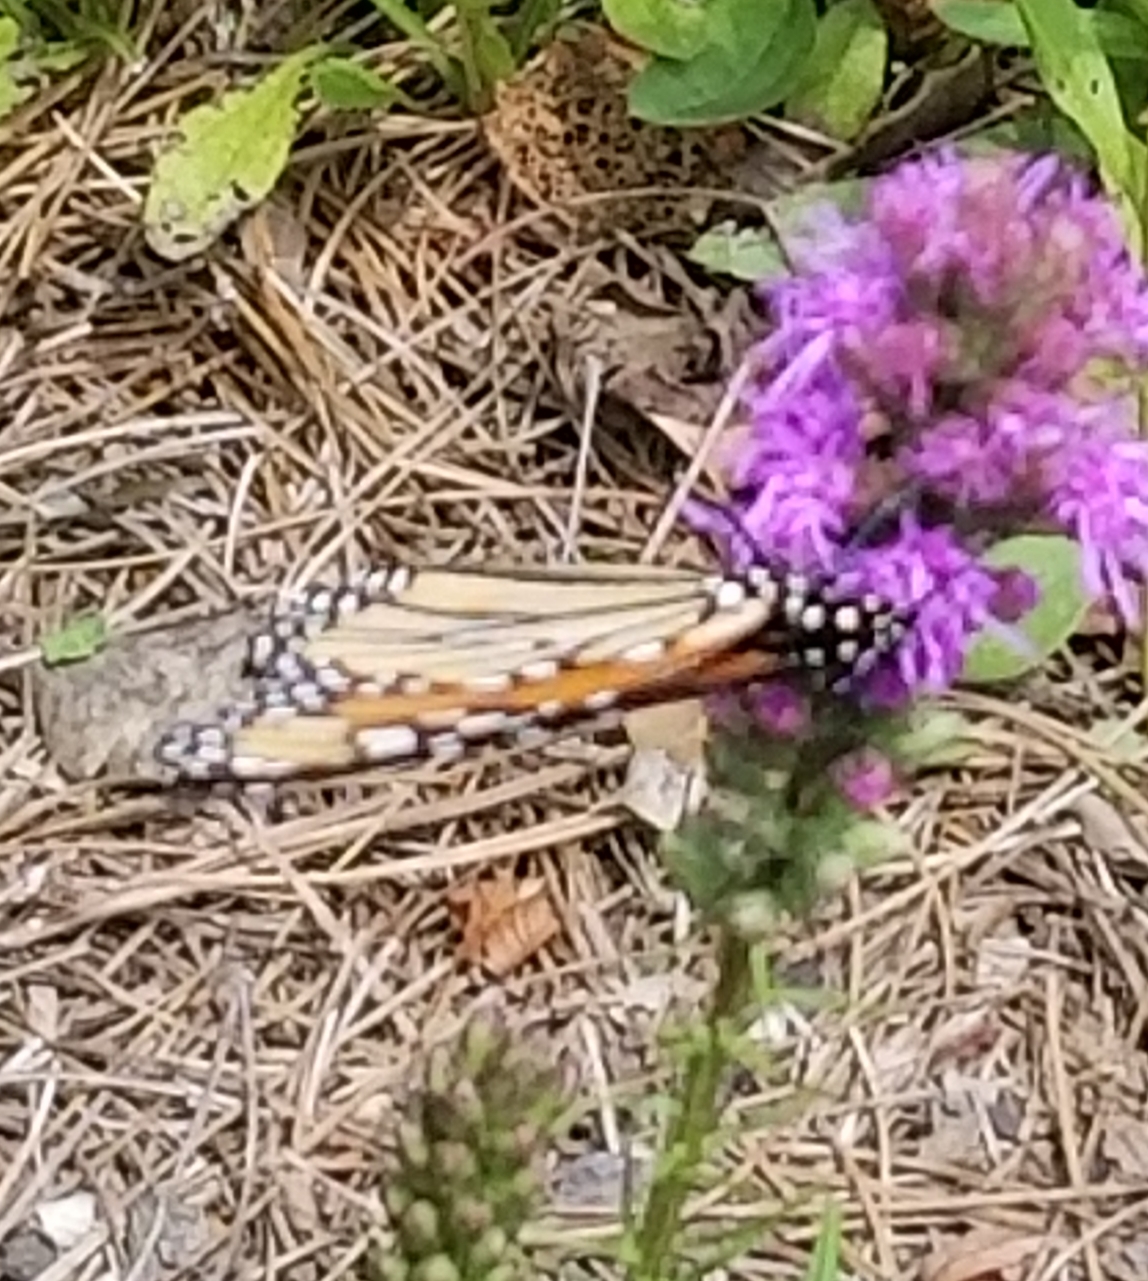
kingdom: Animalia
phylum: Arthropoda
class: Insecta
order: Lepidoptera
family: Nymphalidae
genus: Danaus
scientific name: Danaus plexippus
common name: Monarch
